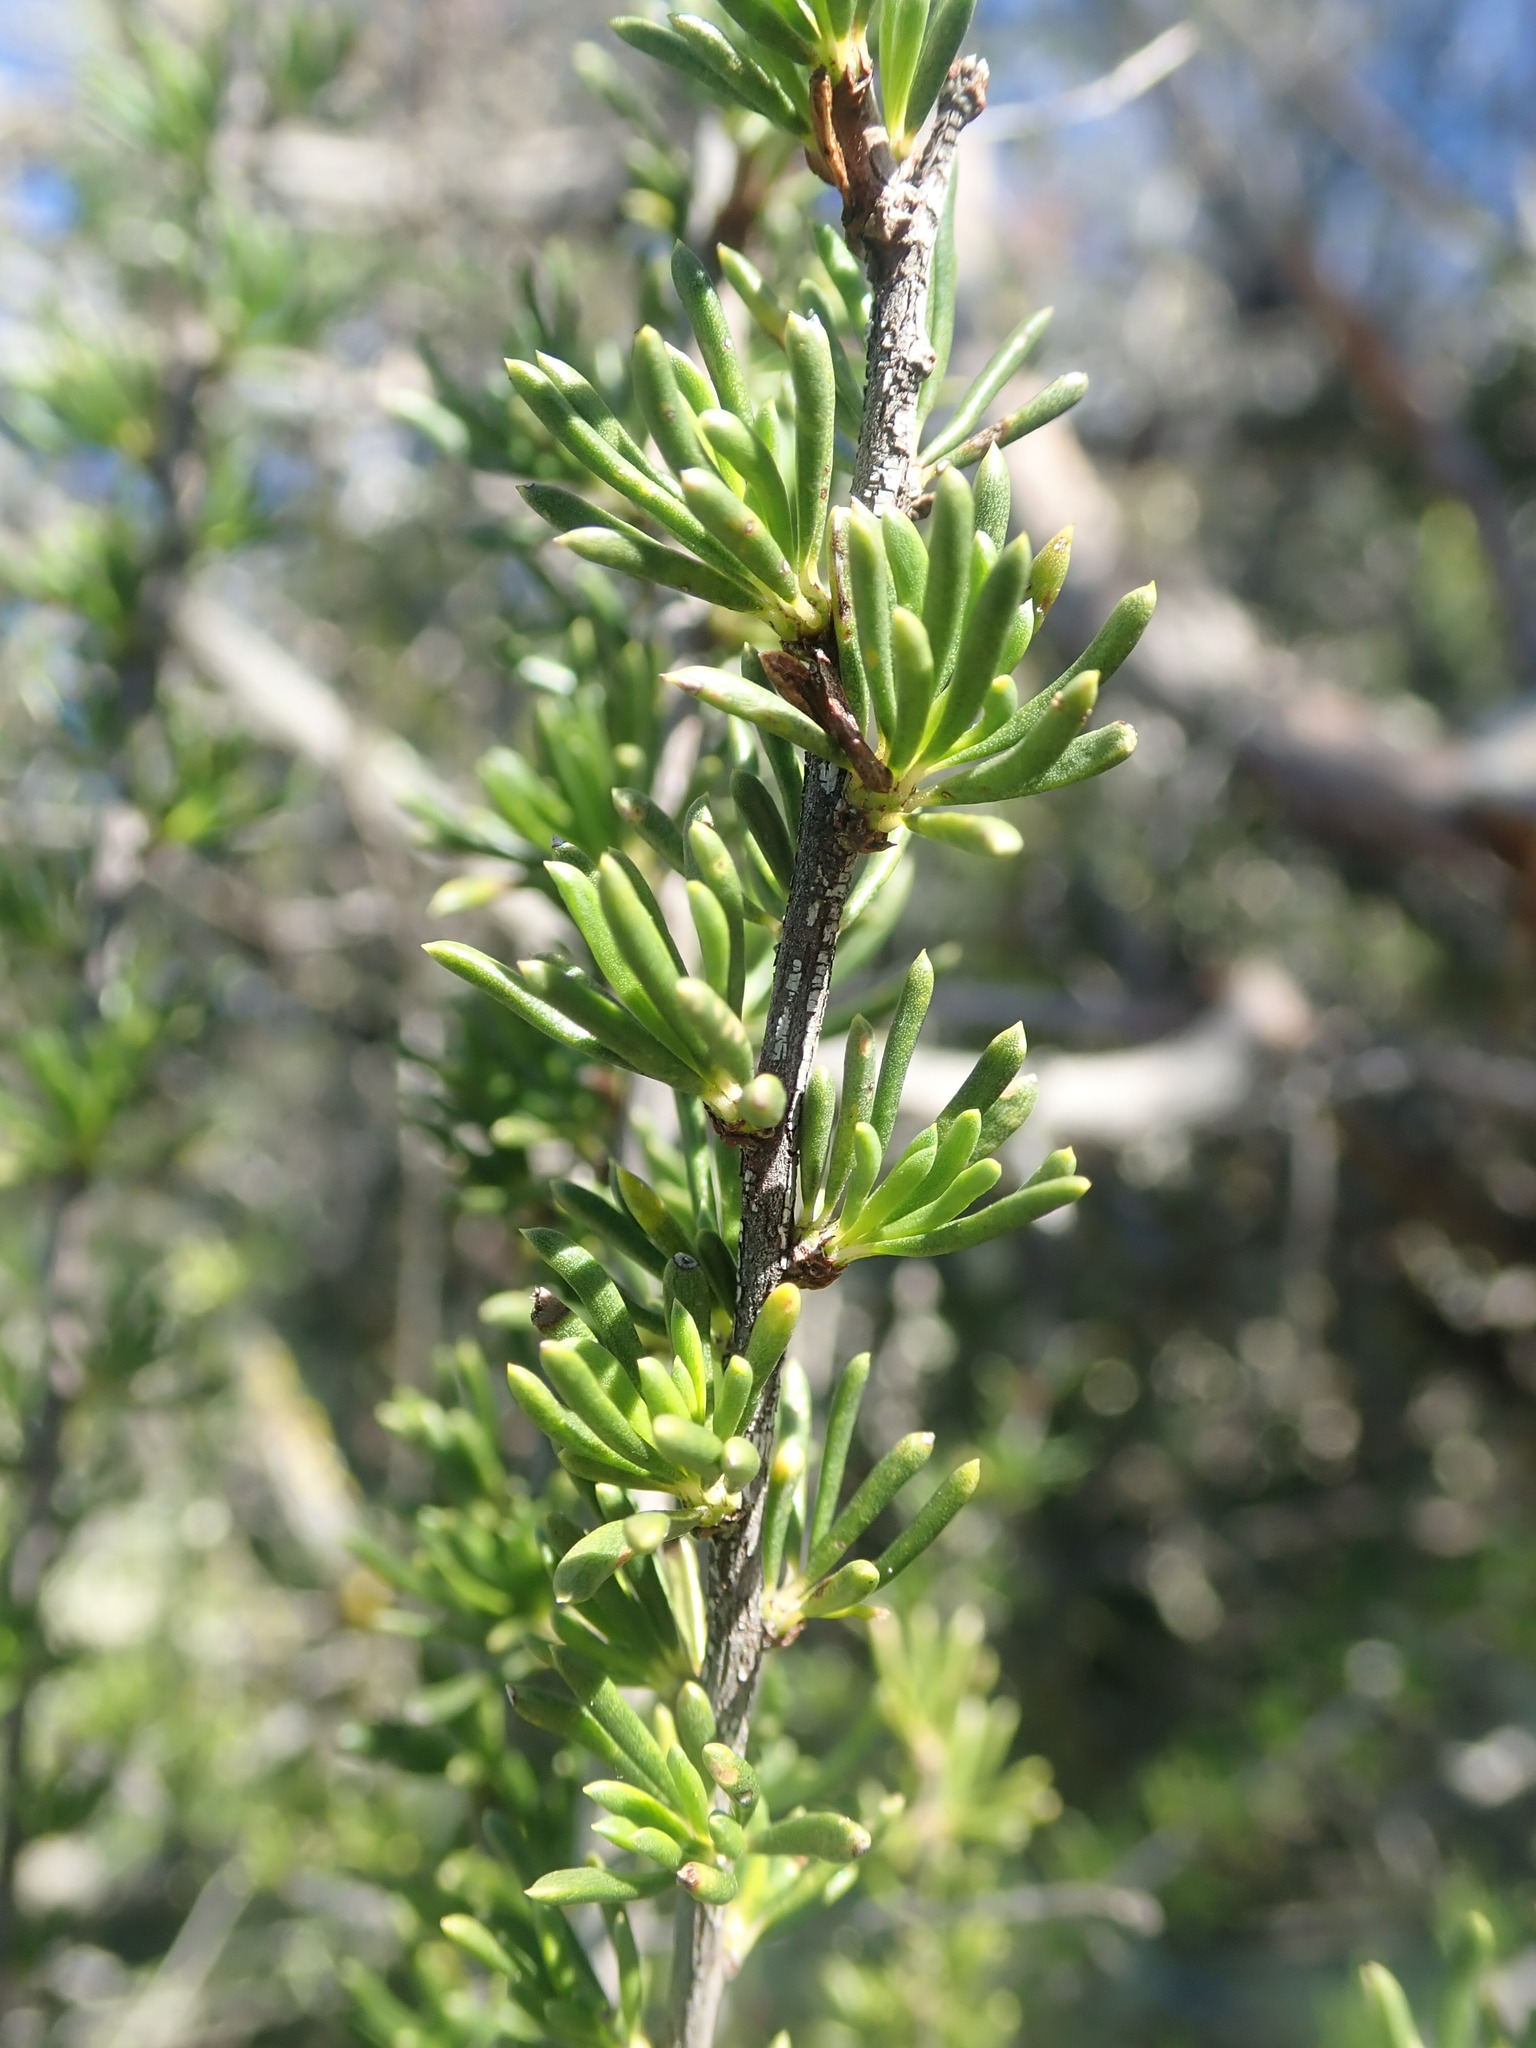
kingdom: Plantae
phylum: Tracheophyta
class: Magnoliopsida
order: Rosales
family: Rosaceae
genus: Adenostoma
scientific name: Adenostoma fasciculatum
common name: Chamise
